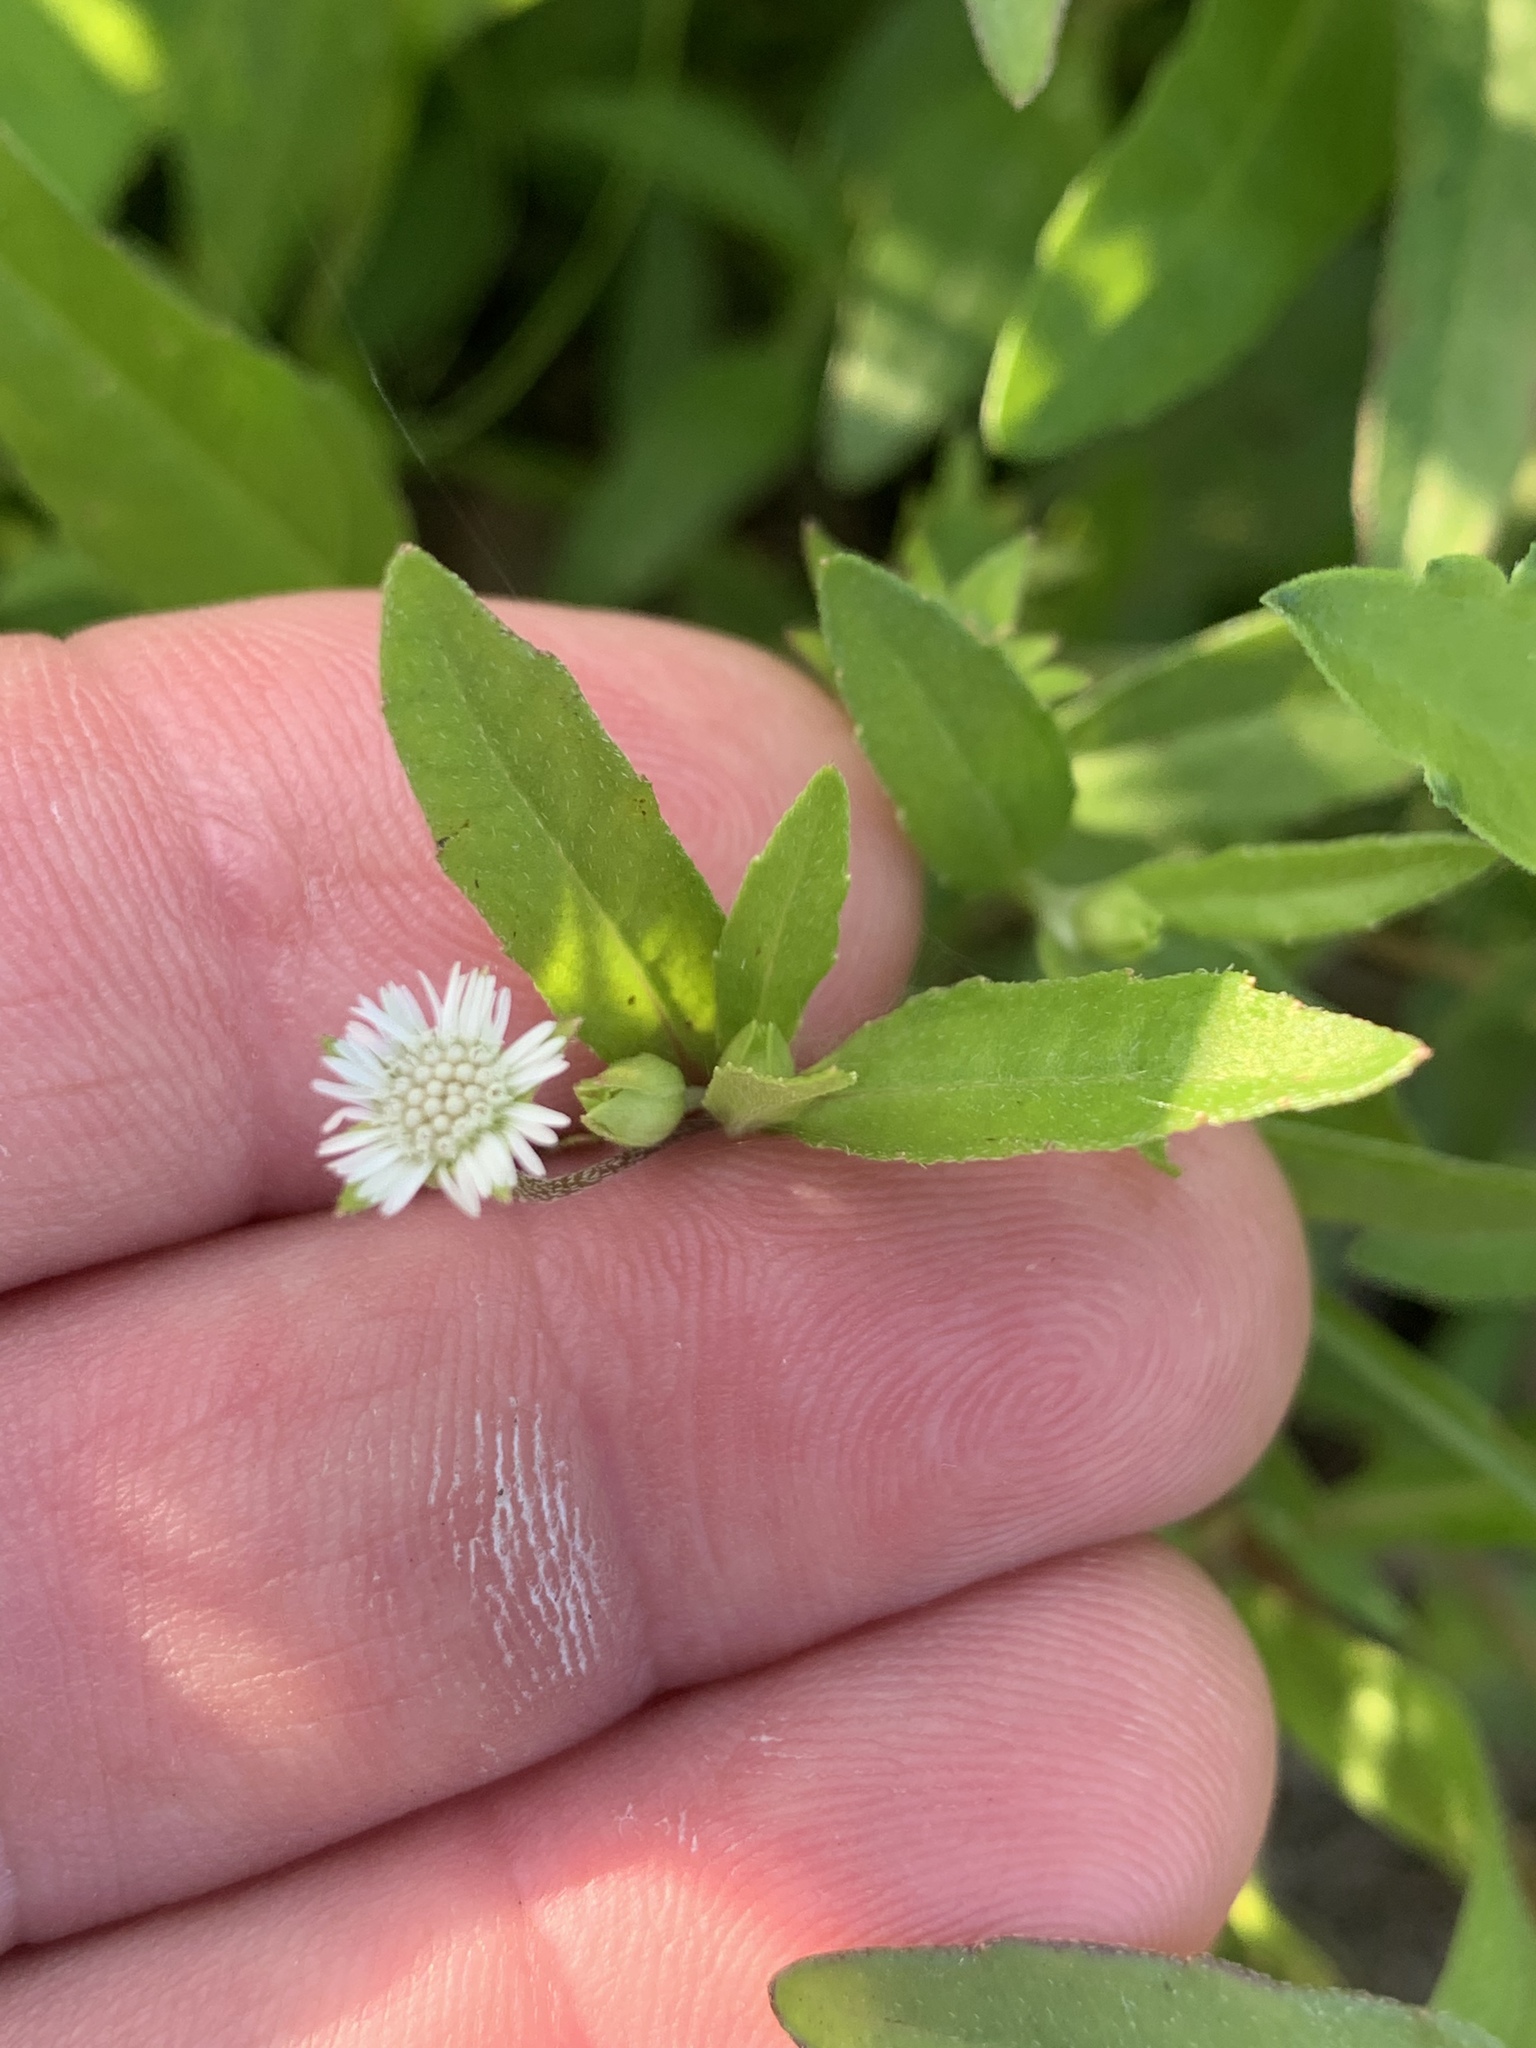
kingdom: Plantae
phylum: Tracheophyta
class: Magnoliopsida
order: Asterales
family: Asteraceae
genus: Eclipta
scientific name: Eclipta prostrata
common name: False daisy
